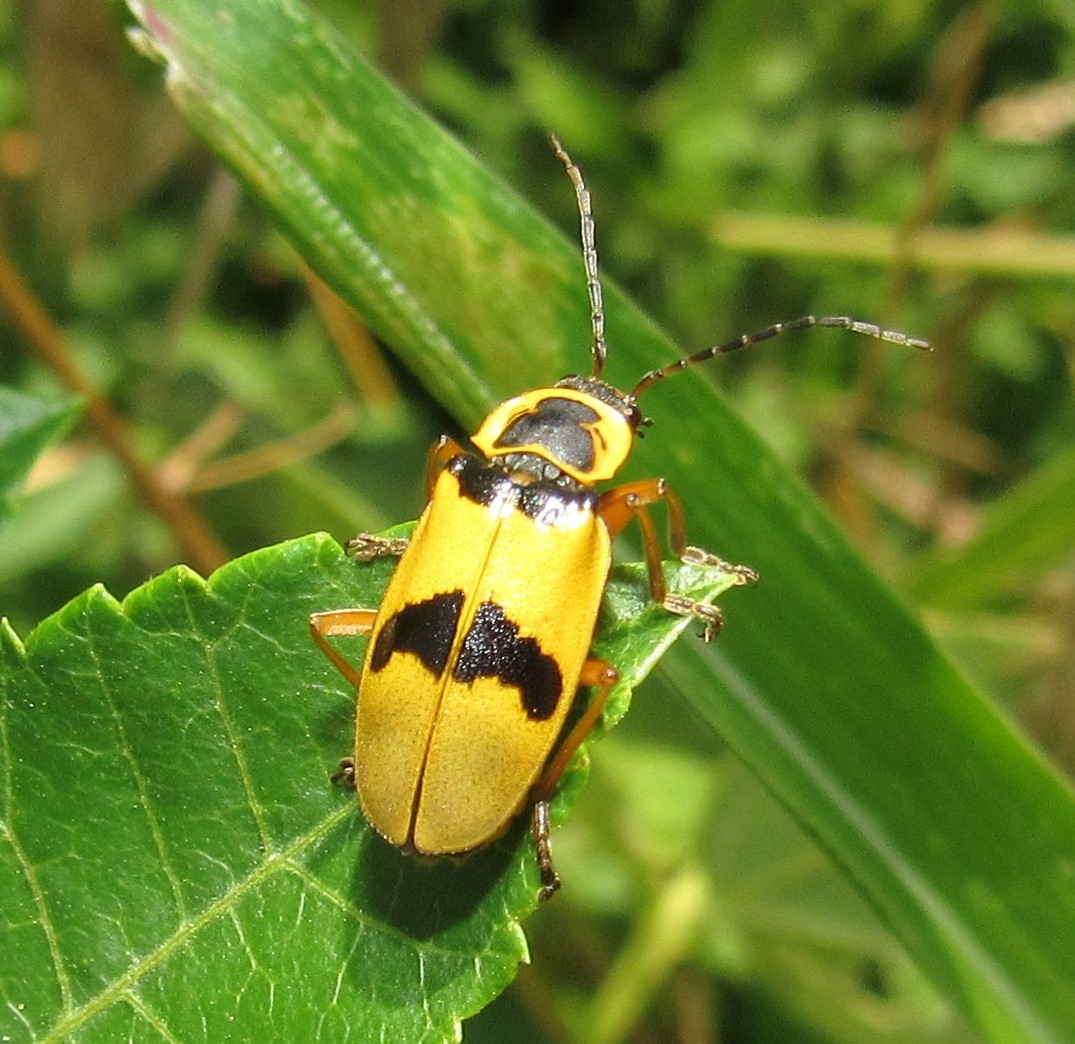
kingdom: Animalia
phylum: Arthropoda
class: Insecta
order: Coleoptera
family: Cantharidae
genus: Chauliognathus
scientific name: Chauliognathus
